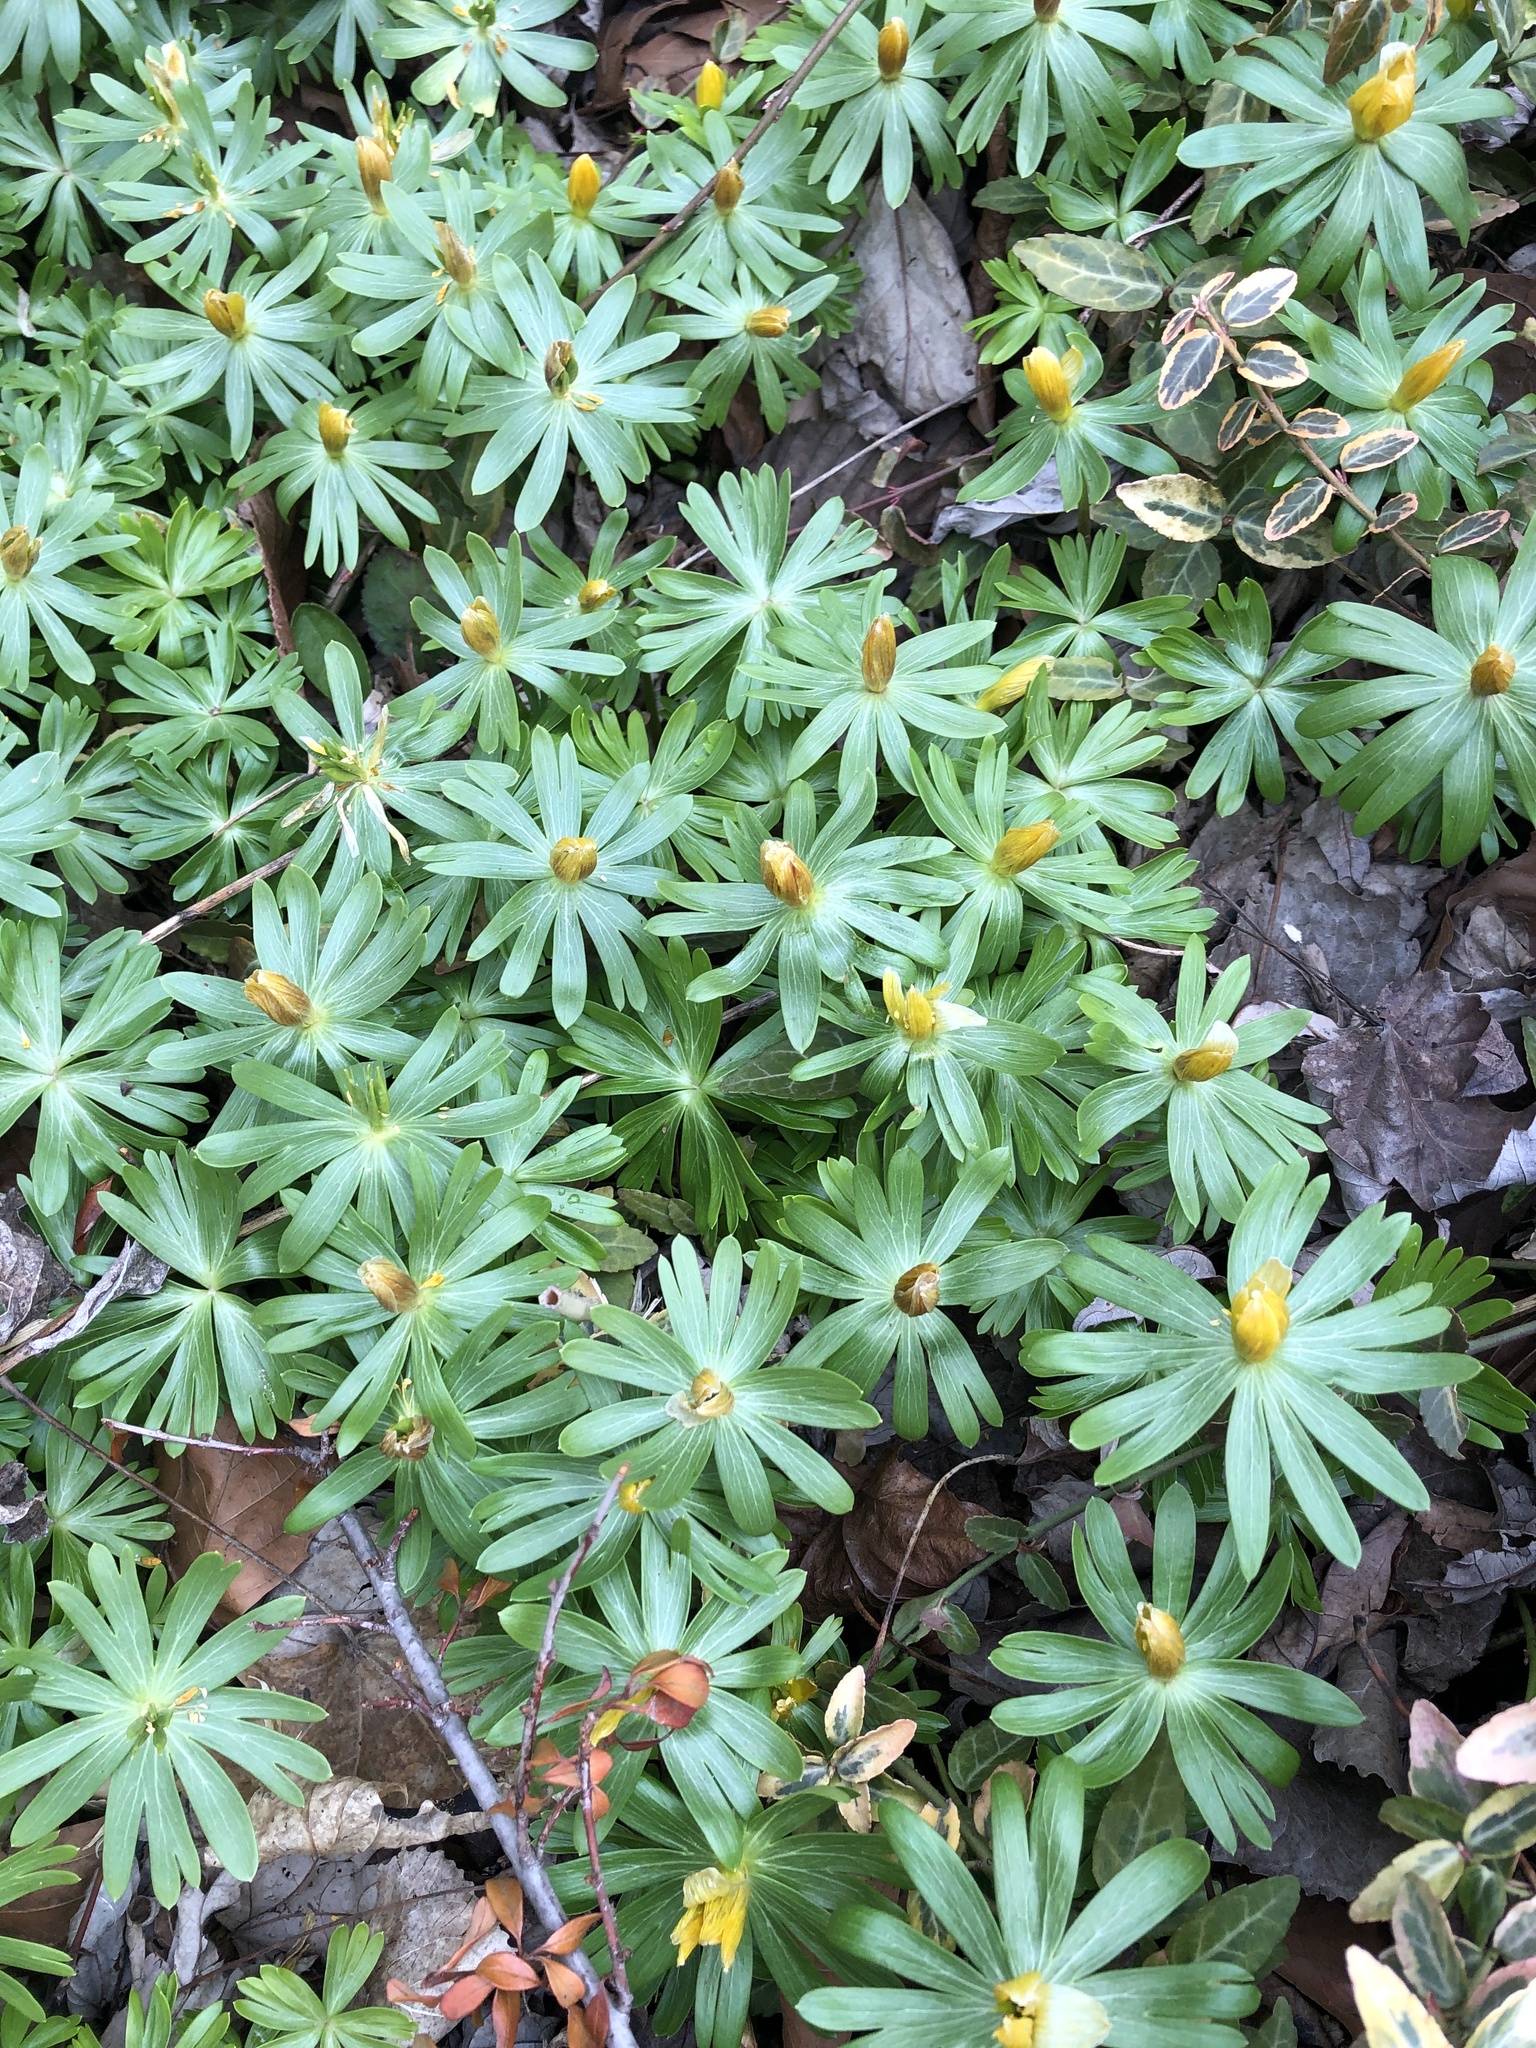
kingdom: Plantae
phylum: Tracheophyta
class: Magnoliopsida
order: Ranunculales
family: Ranunculaceae
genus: Eranthis
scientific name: Eranthis hyemalis
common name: Winter aconite
